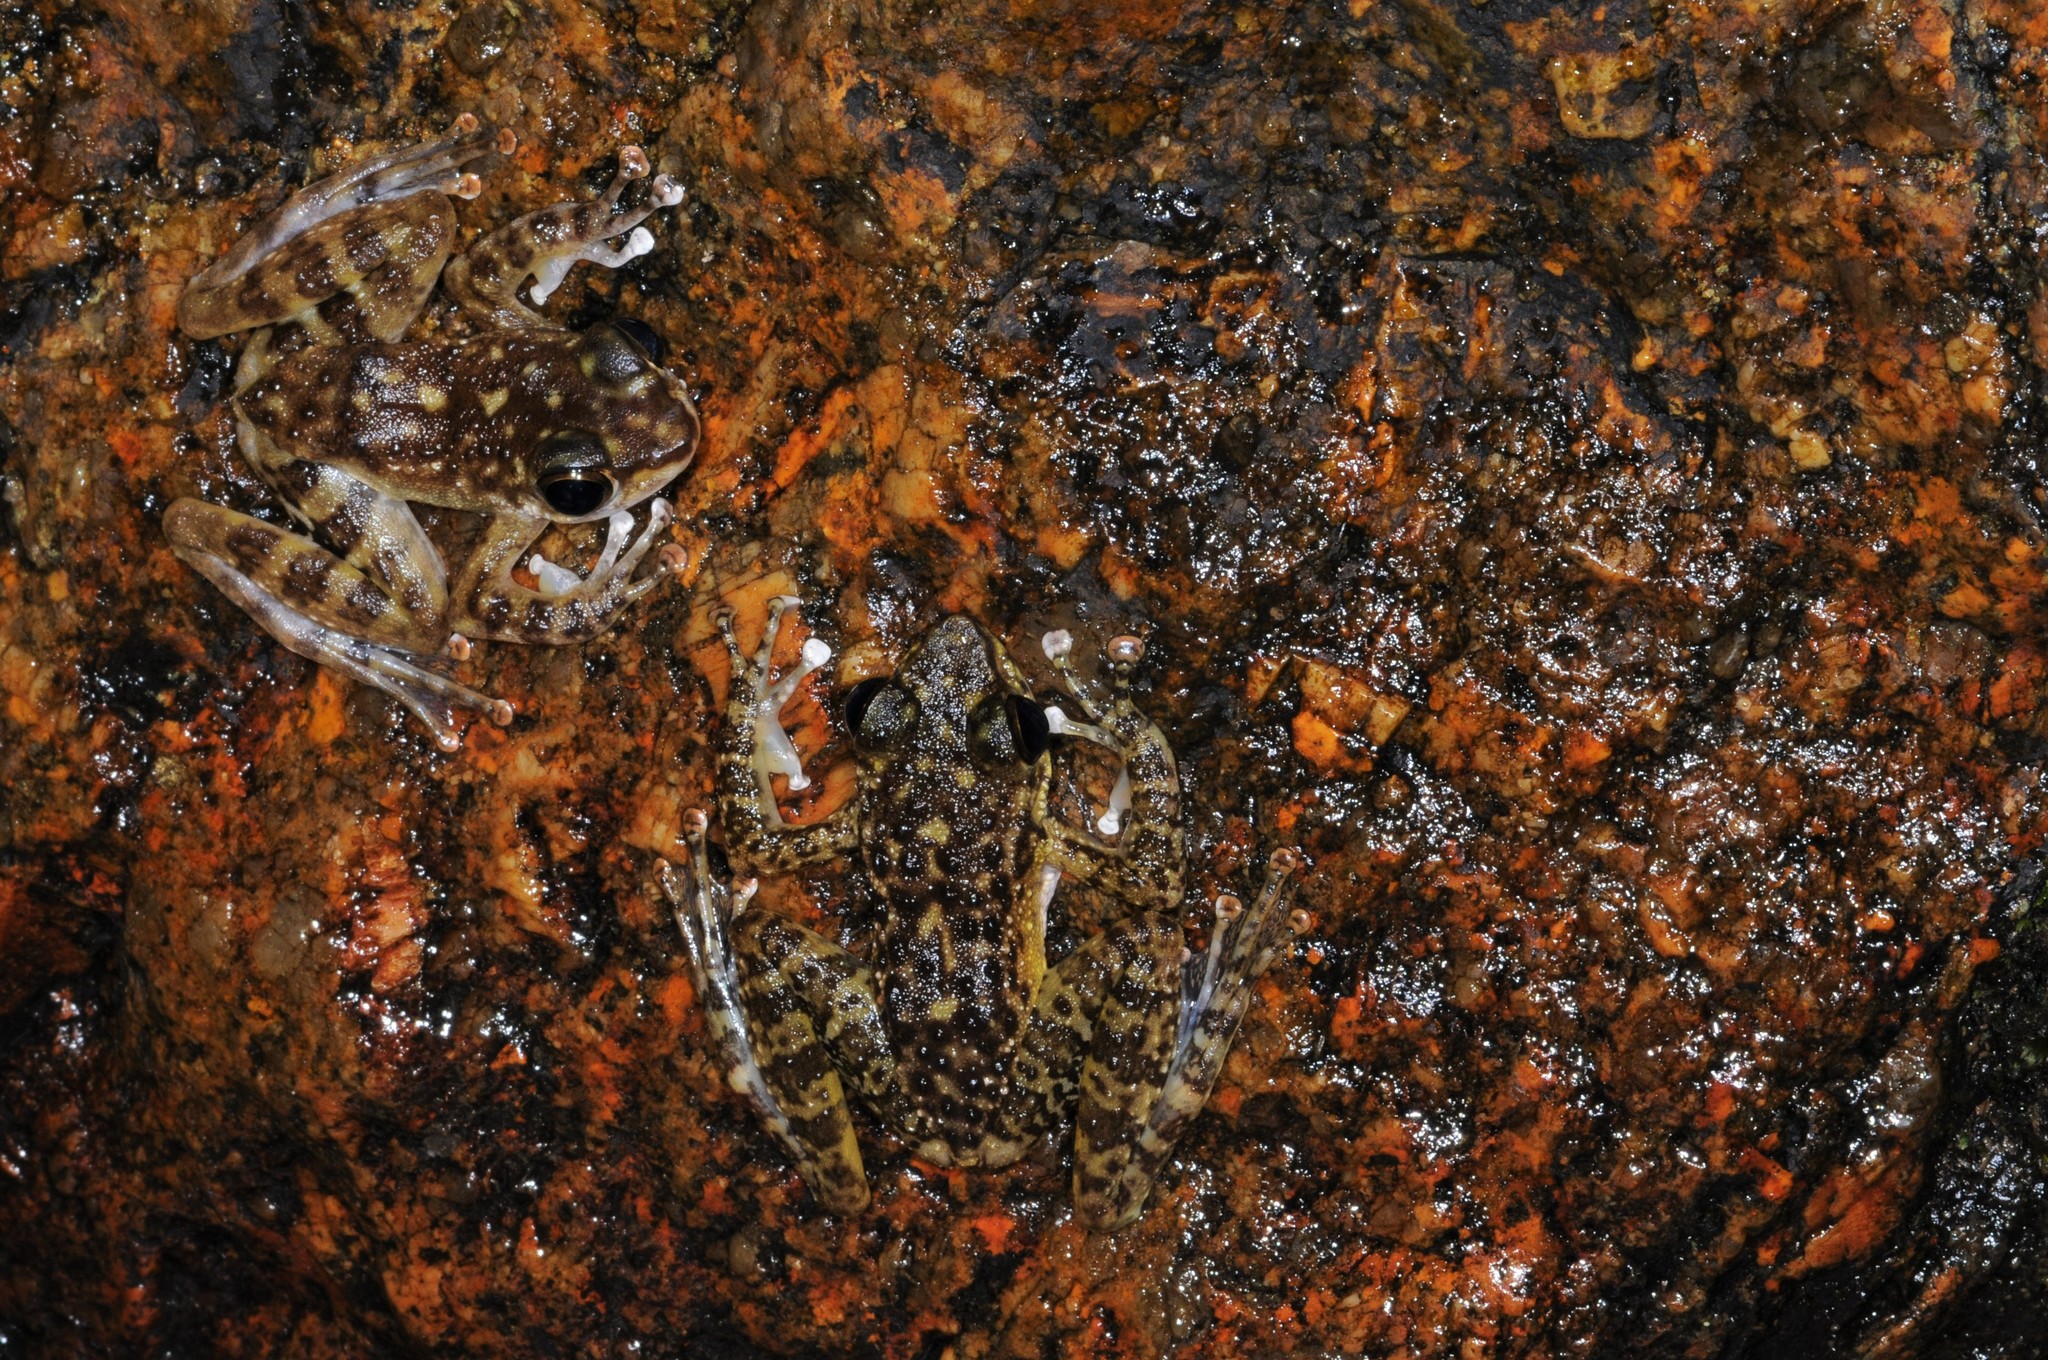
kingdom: Animalia
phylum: Chordata
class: Amphibia
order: Anura
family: Ranidae
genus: Amolops
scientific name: Amolops larutensis
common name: Larut sucker frog/torrent frog/southern pad-discked frog/larut hill cascade frog
